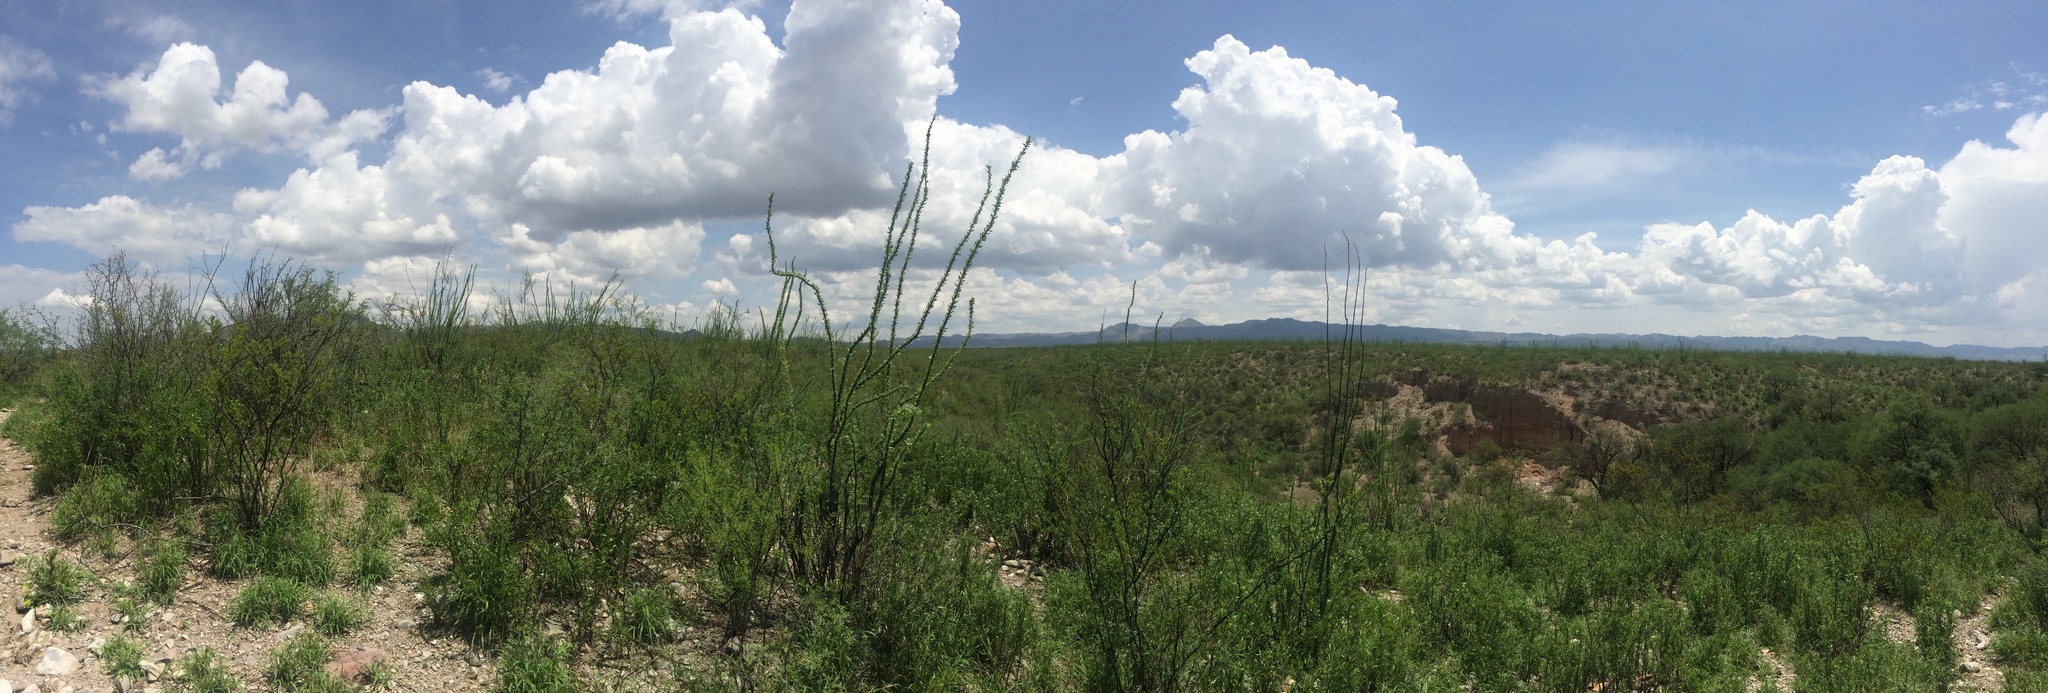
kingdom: Plantae
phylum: Tracheophyta
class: Magnoliopsida
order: Ericales
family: Fouquieriaceae
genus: Fouquieria
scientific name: Fouquieria splendens
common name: Vine-cactus
